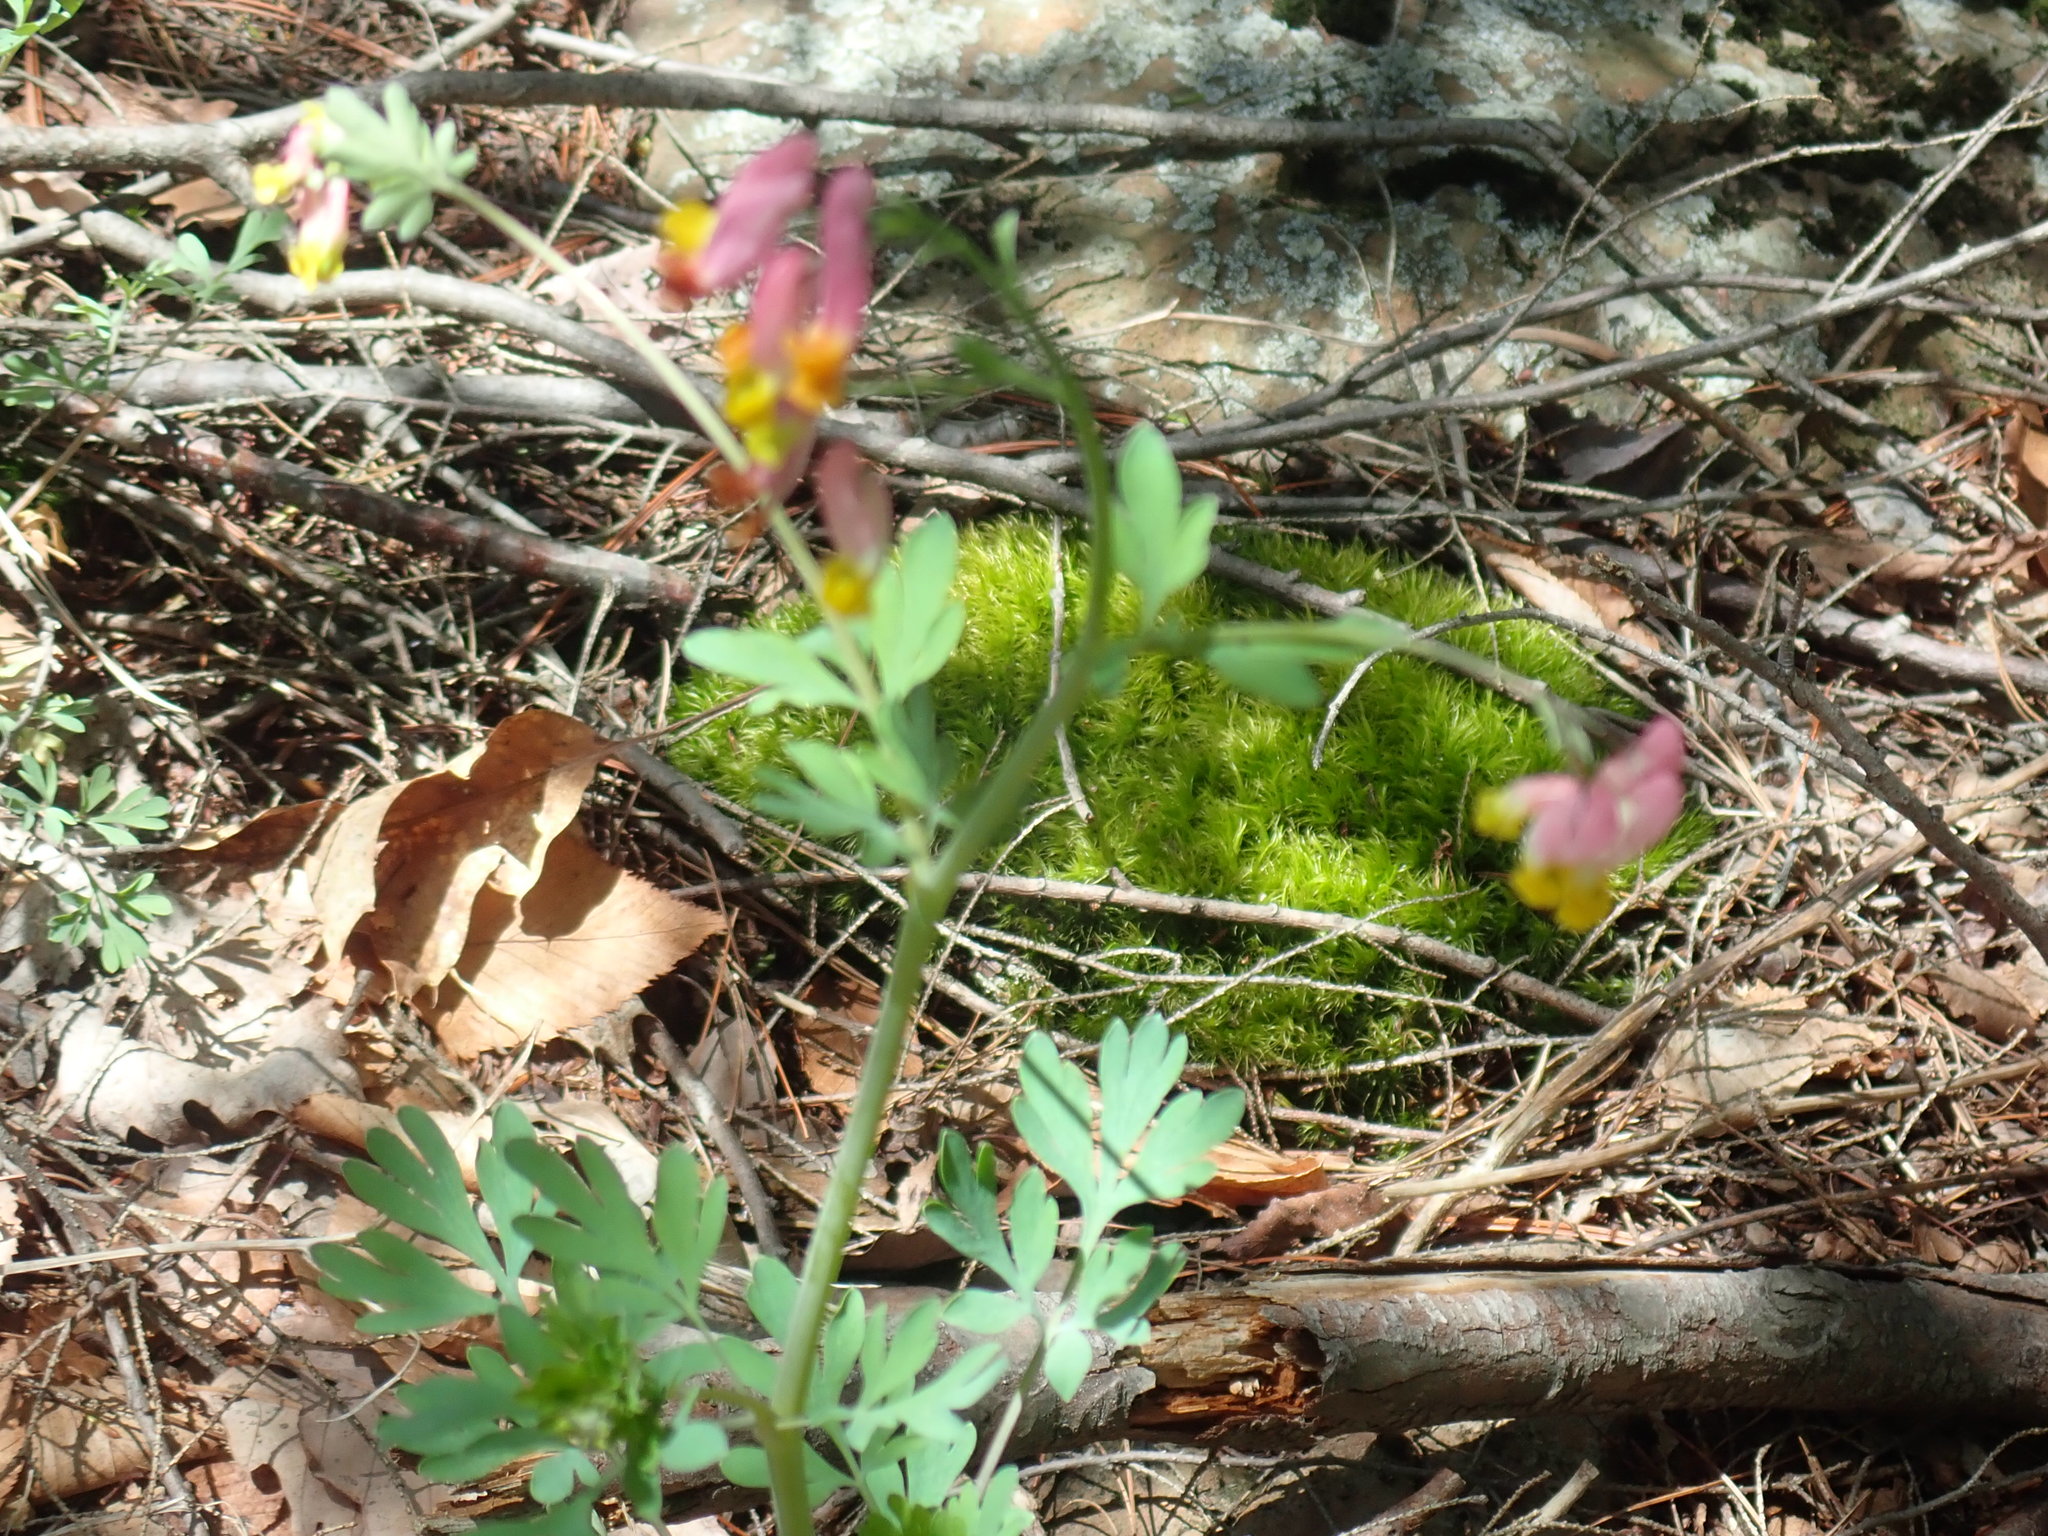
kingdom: Plantae
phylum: Tracheophyta
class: Magnoliopsida
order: Ranunculales
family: Papaveraceae
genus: Capnoides
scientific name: Capnoides sempervirens
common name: Rock harlequin
